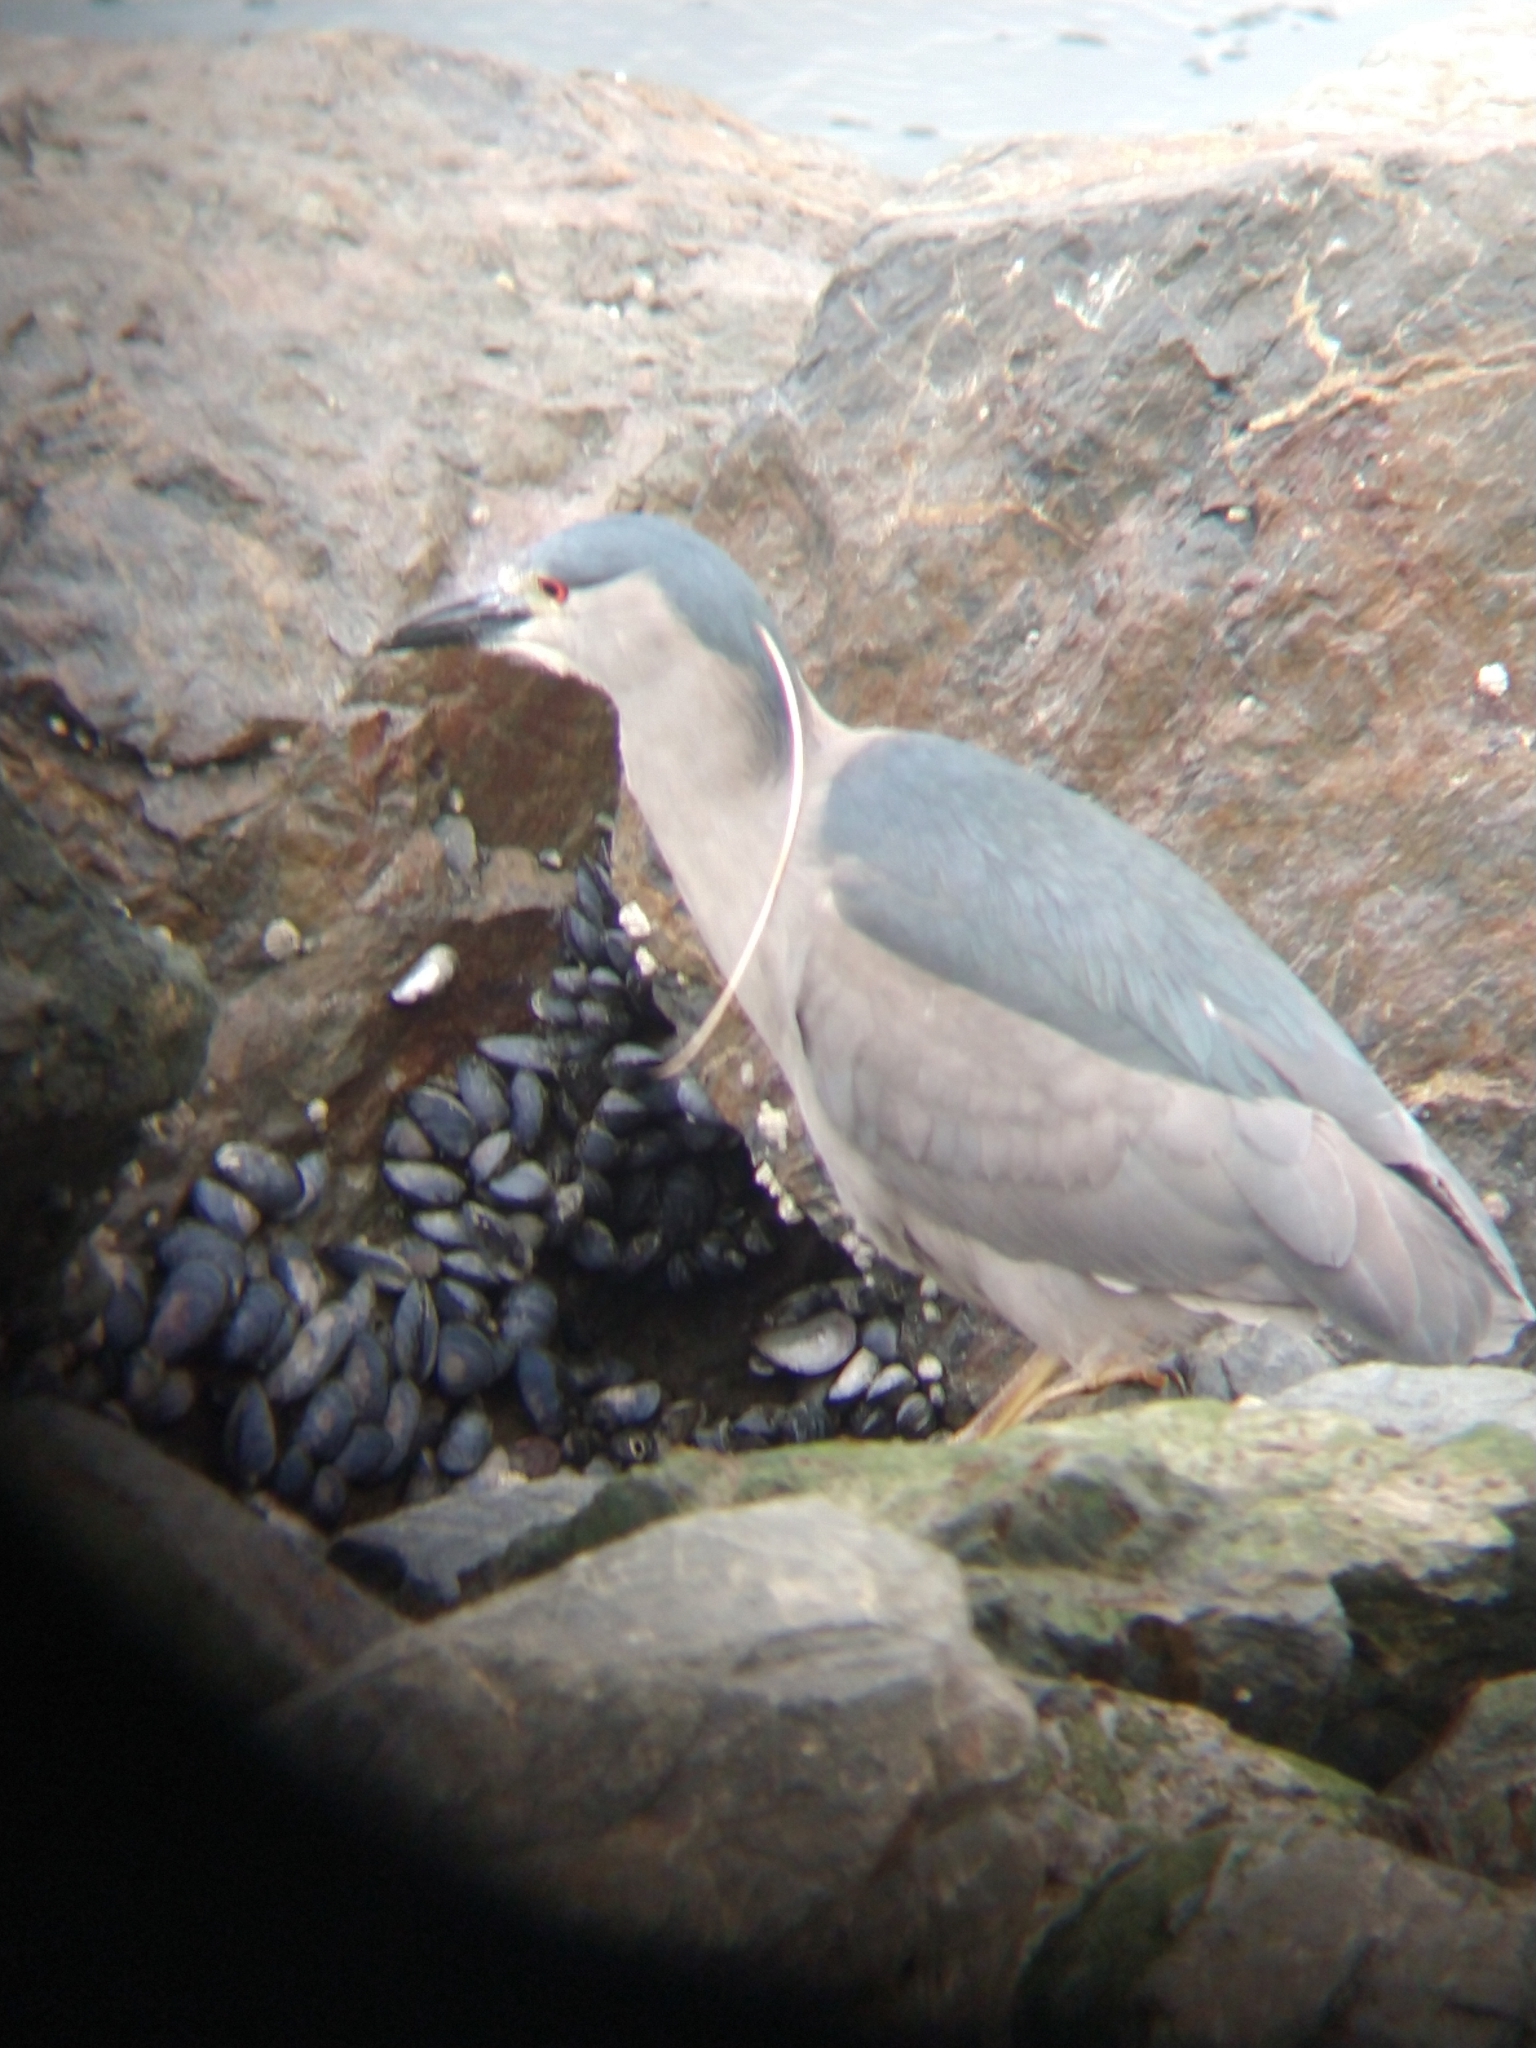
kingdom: Animalia
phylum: Chordata
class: Aves
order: Pelecaniformes
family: Ardeidae
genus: Nycticorax
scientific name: Nycticorax nycticorax
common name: Black-crowned night heron
